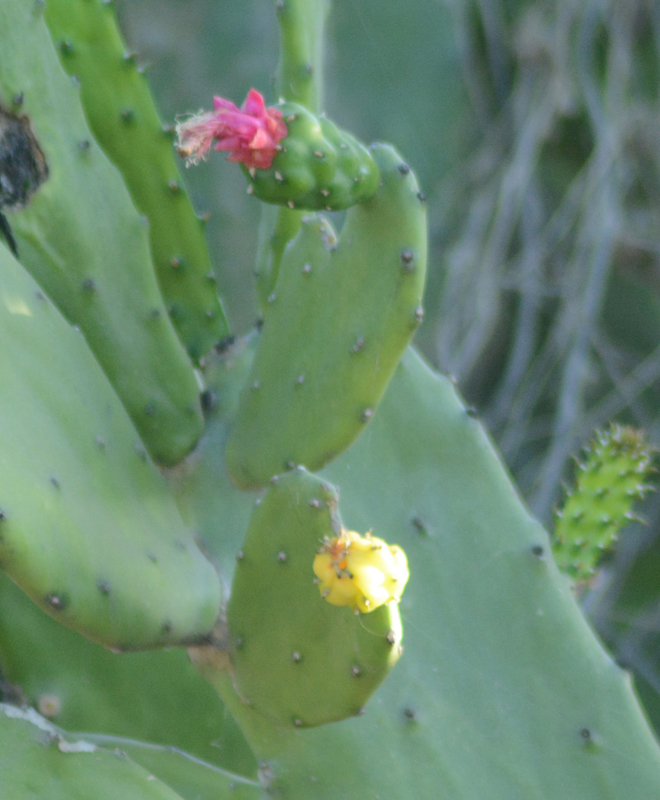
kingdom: Plantae
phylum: Tracheophyta
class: Magnoliopsida
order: Caryophyllales
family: Cactaceae
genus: Opuntia
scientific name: Opuntia hyptiacantha
